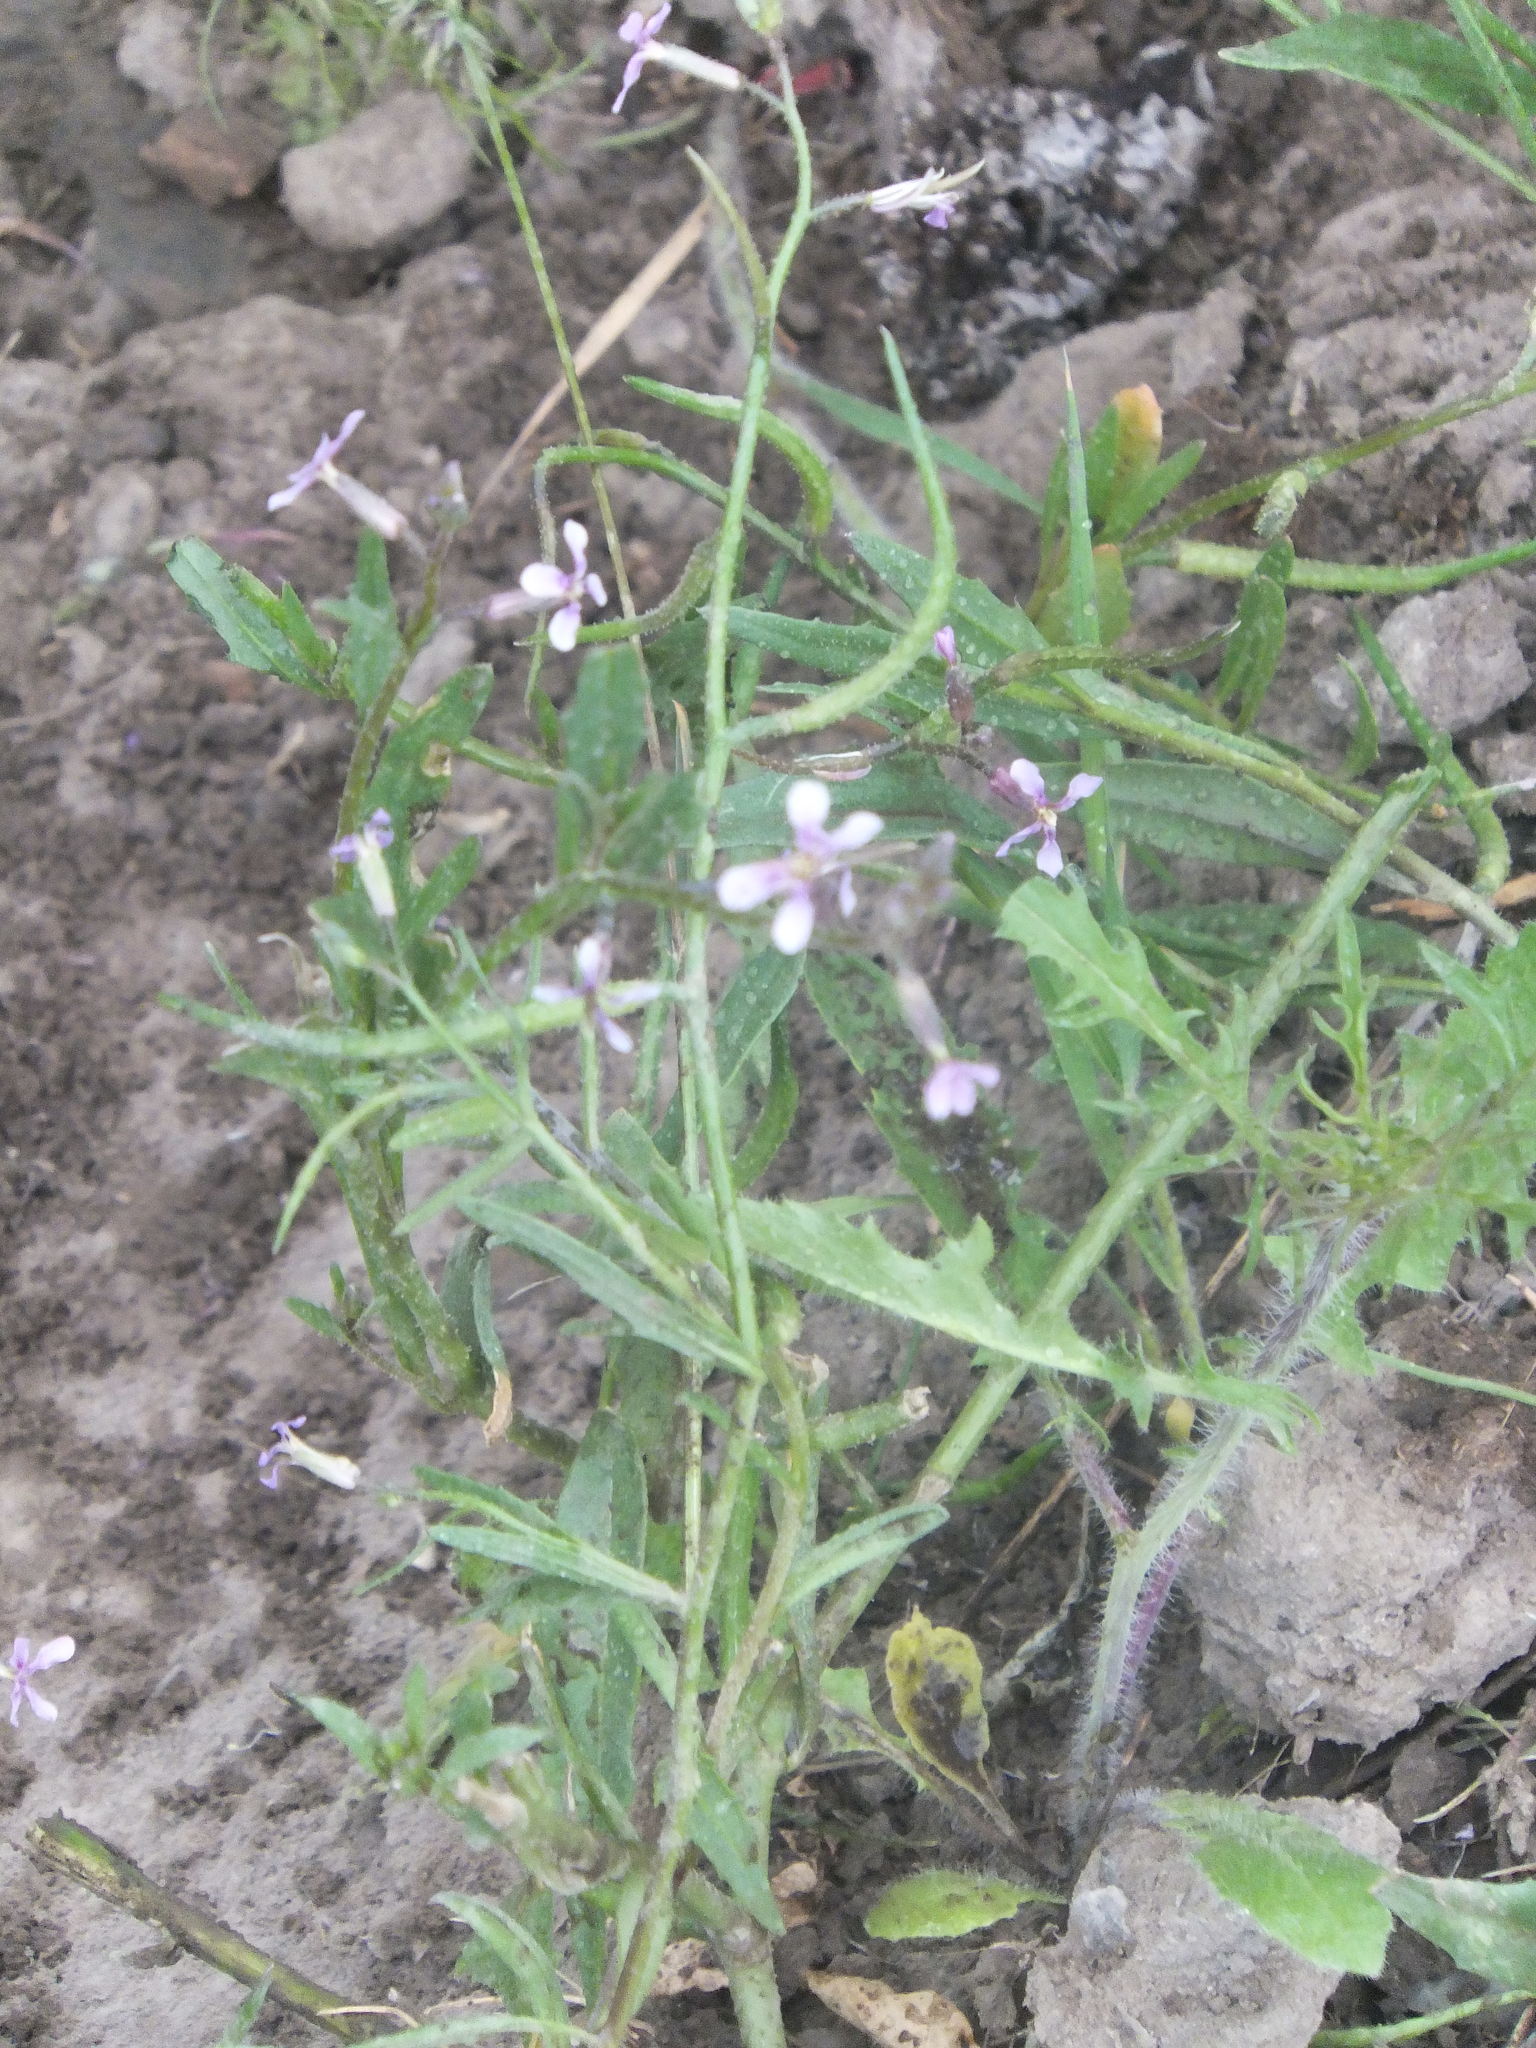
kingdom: Plantae
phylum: Tracheophyta
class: Magnoliopsida
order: Brassicales
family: Brassicaceae
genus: Chorispora
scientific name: Chorispora tenella
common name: Crossflower
